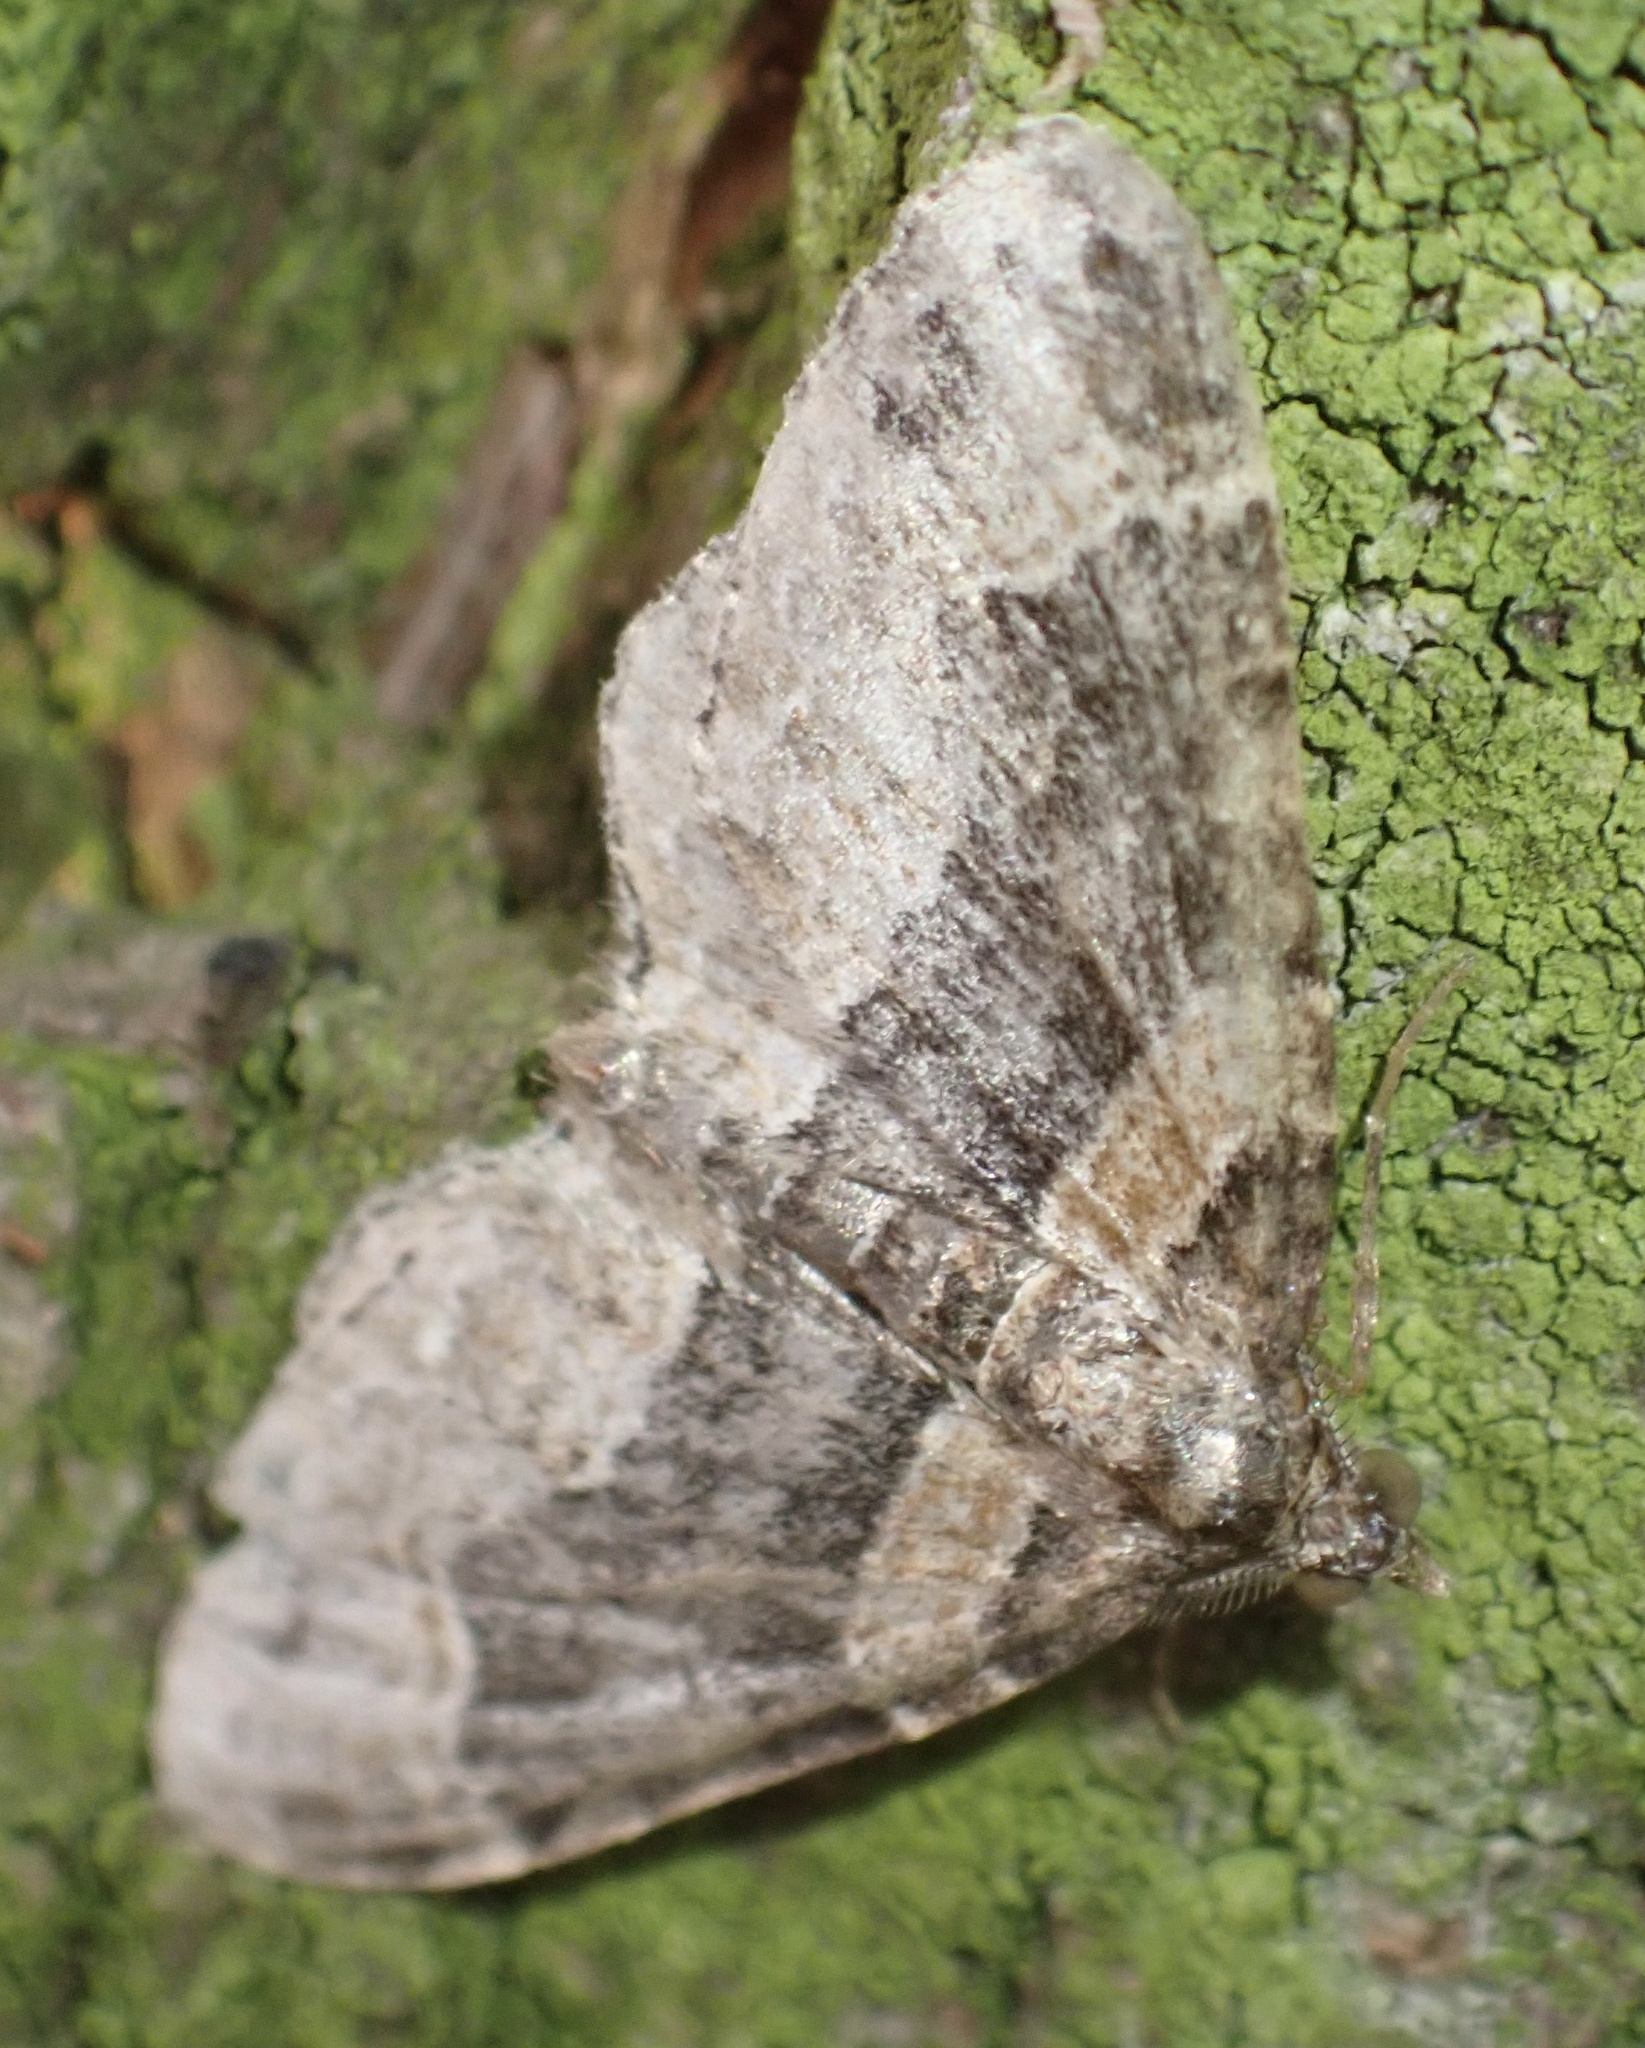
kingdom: Animalia
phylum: Arthropoda
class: Insecta
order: Lepidoptera
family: Geometridae
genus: Xanthorhoe
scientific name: Xanthorhoe ferrugata
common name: Dark-barred twin-spot carpet
